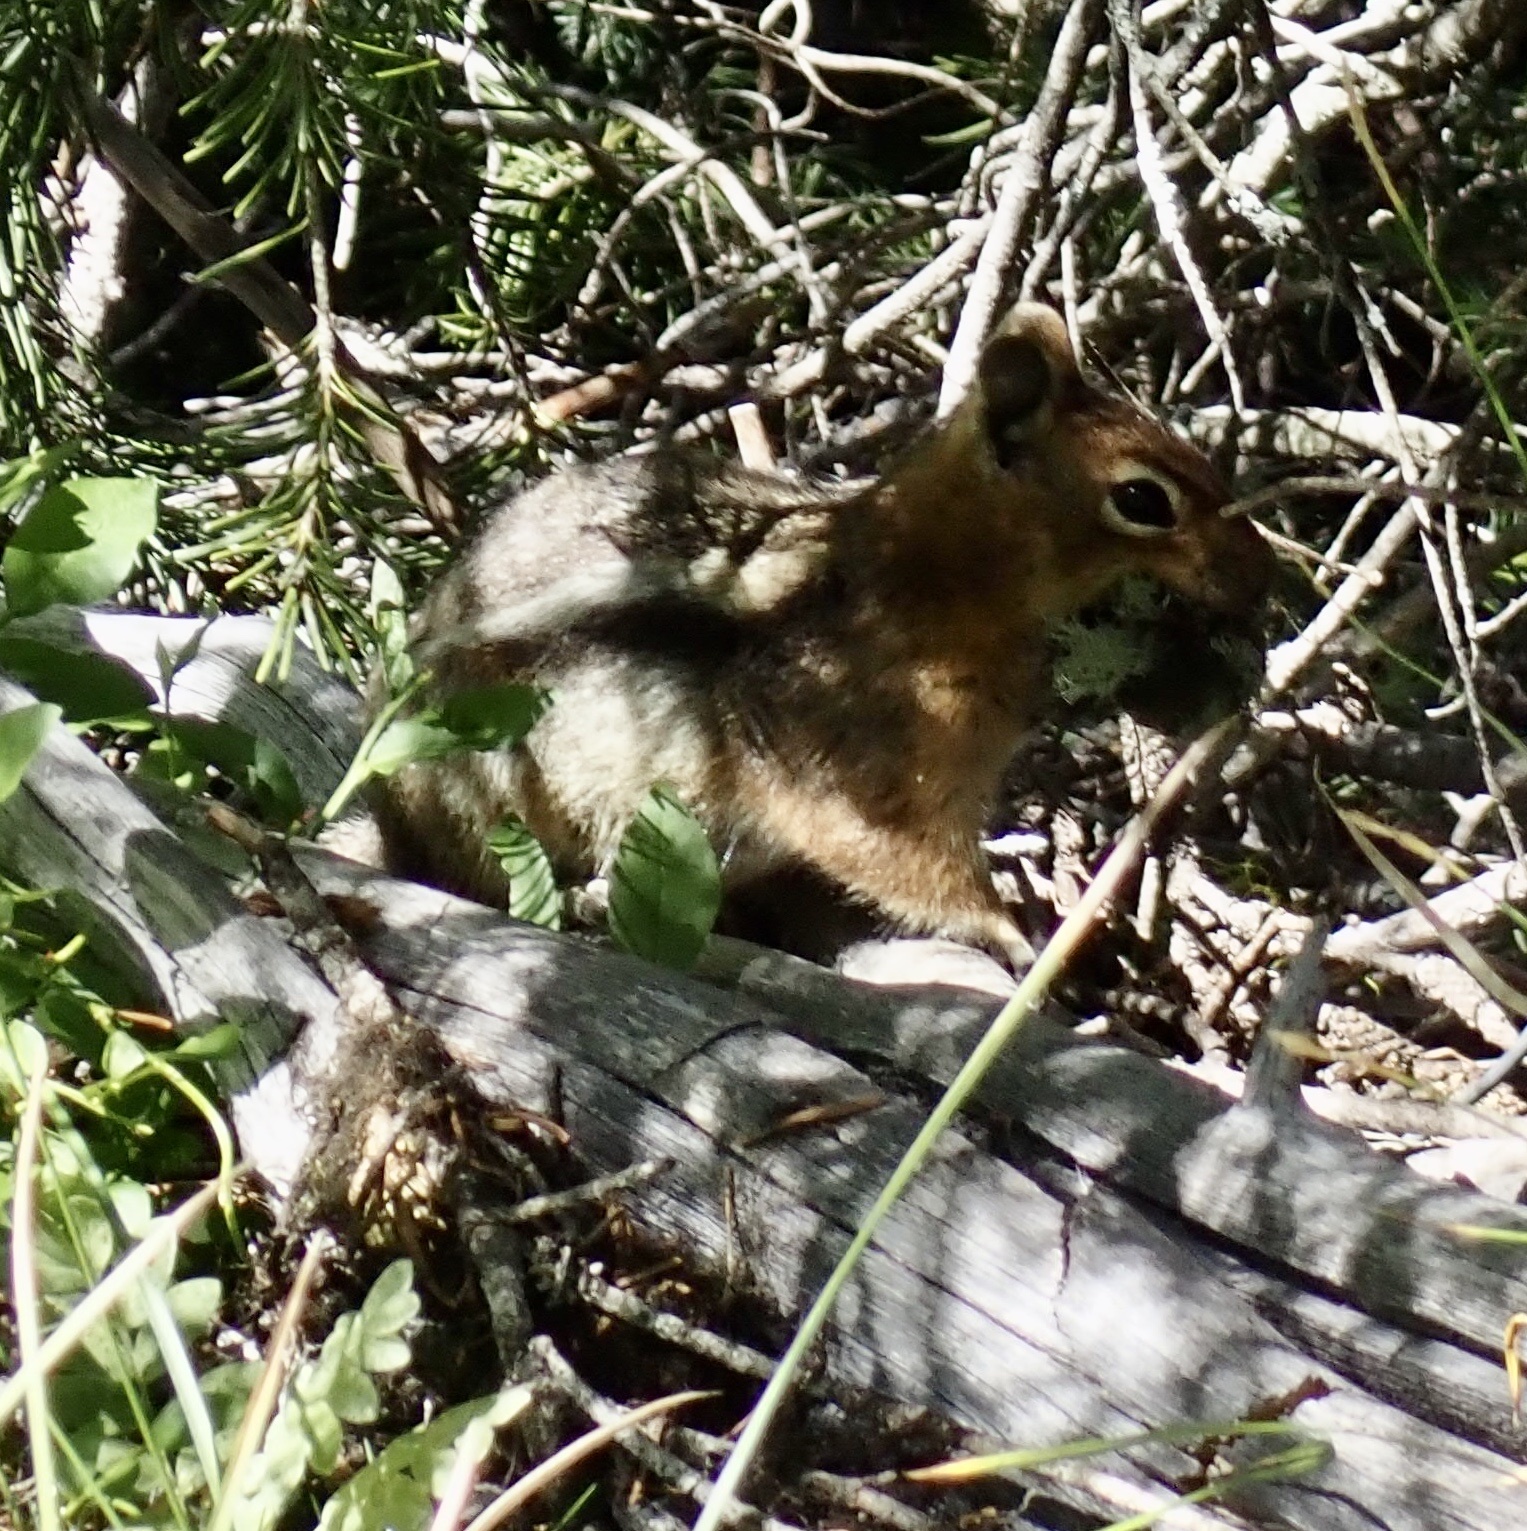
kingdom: Animalia
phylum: Chordata
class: Mammalia
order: Rodentia
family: Sciuridae
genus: Callospermophilus
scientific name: Callospermophilus saturatus
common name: Cascade golden-mantled ground squirrel
